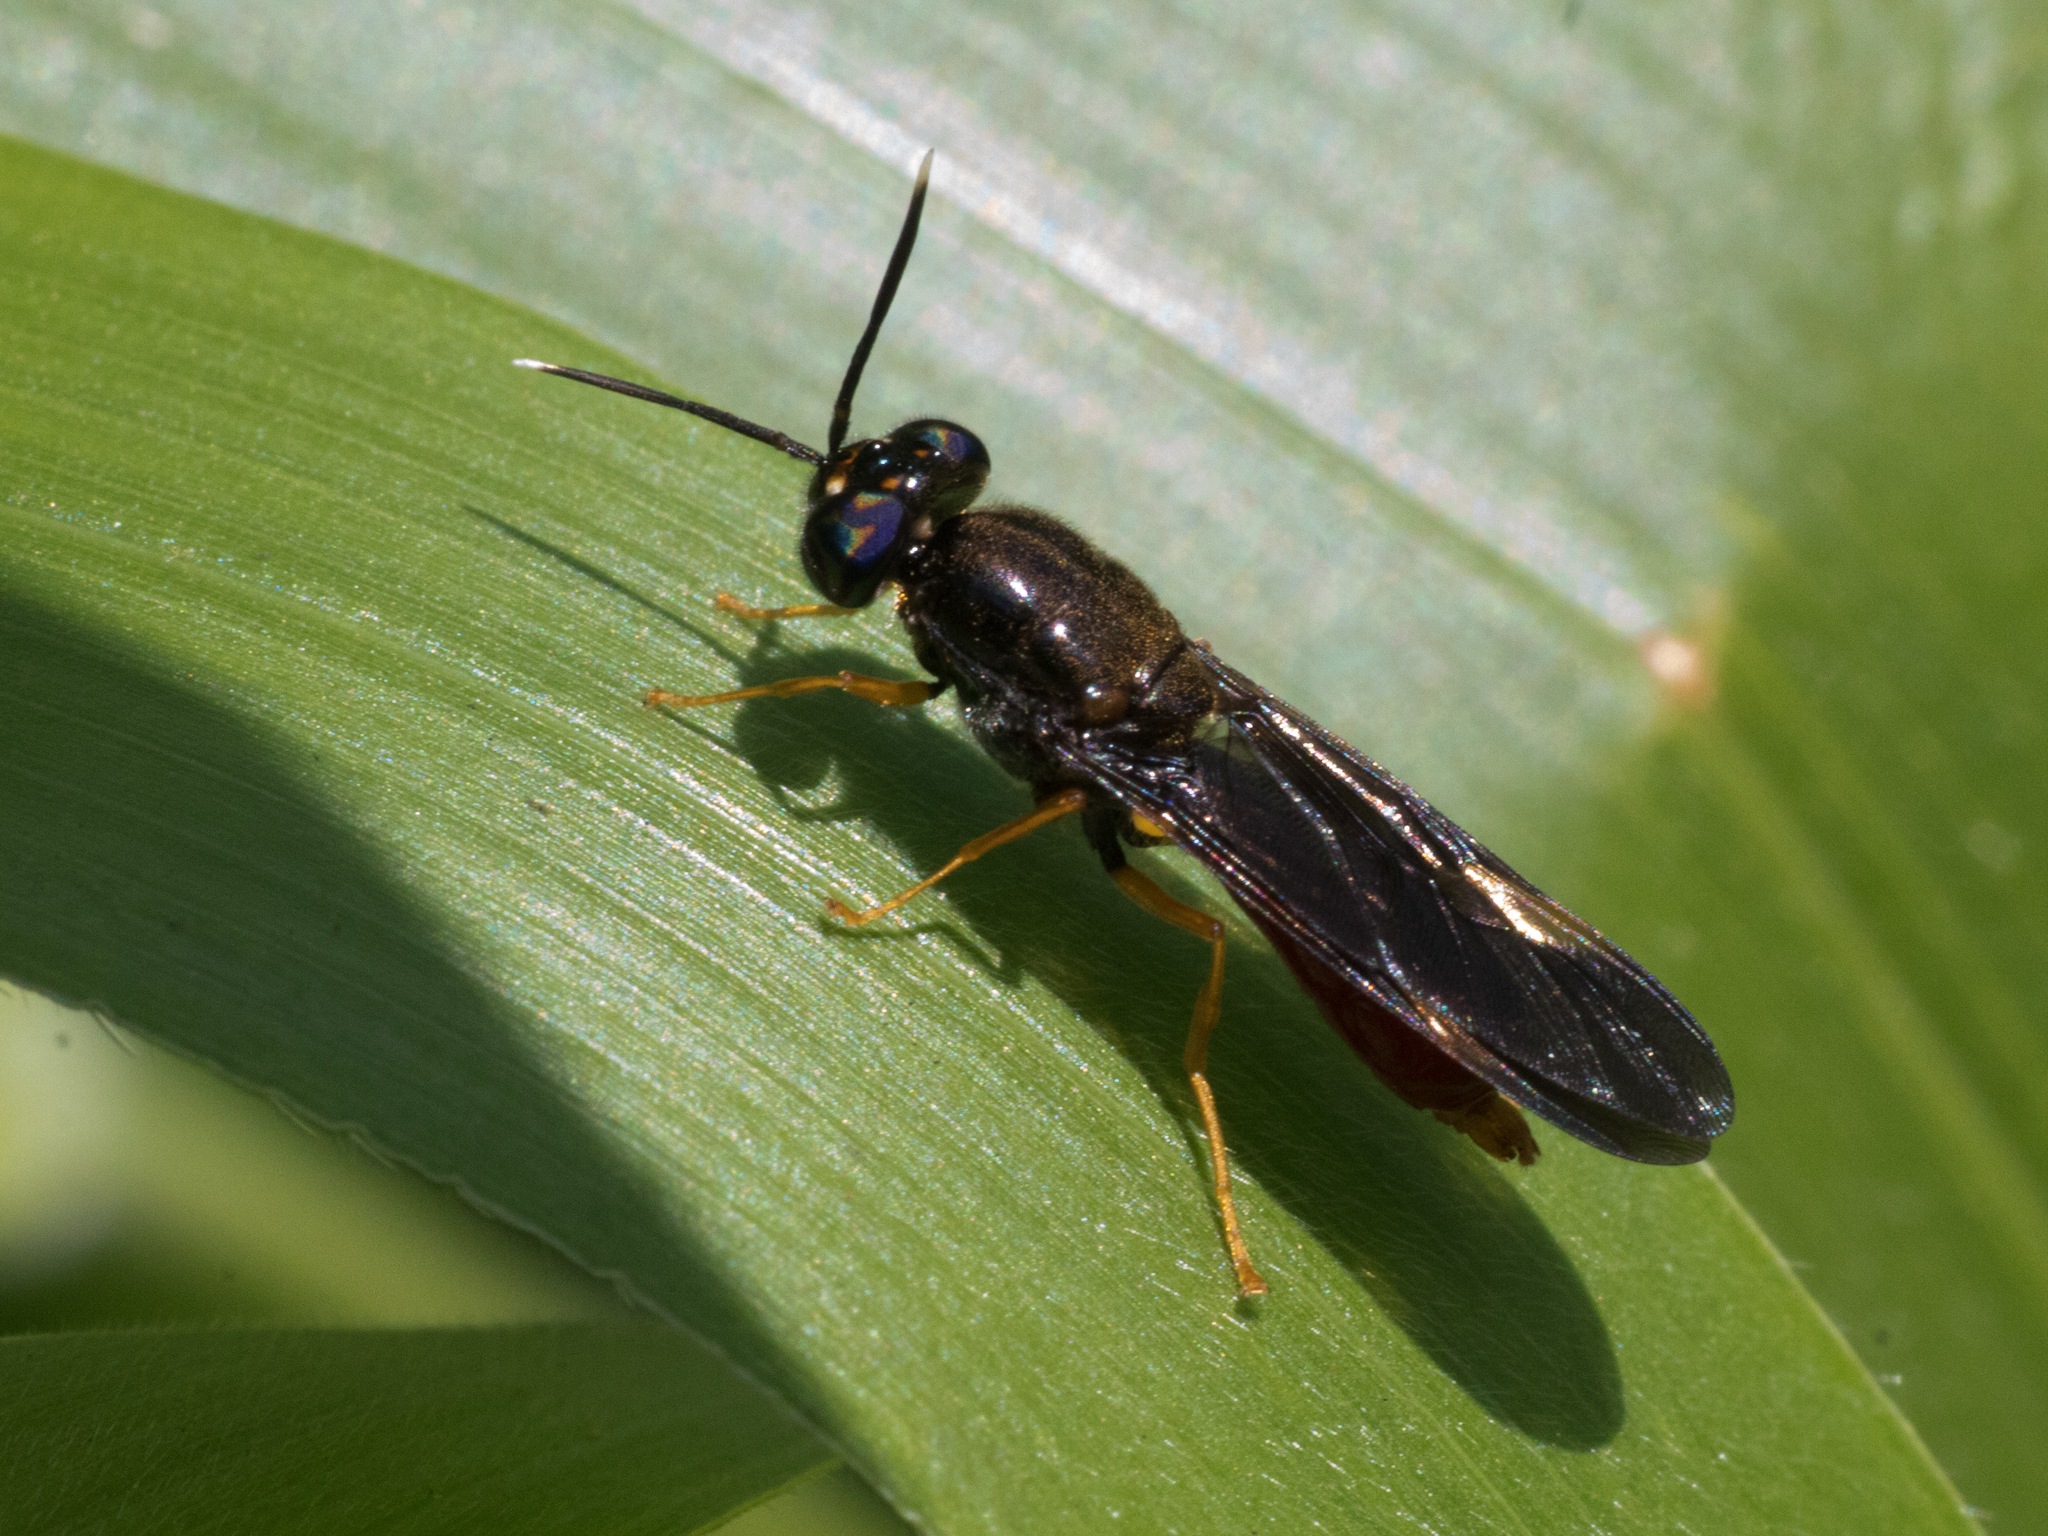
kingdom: Animalia
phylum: Arthropoda
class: Insecta
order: Diptera
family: Stratiomyidae
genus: Hermetia
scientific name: Hermetia currani
